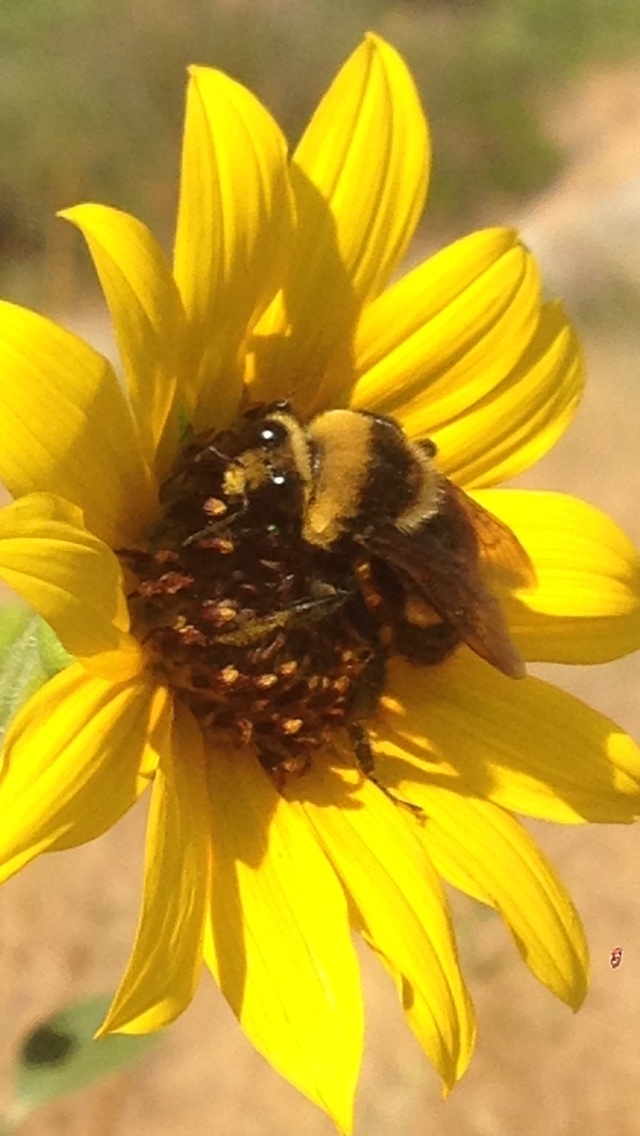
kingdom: Animalia
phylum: Arthropoda
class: Insecta
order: Hymenoptera
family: Apidae
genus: Bombus
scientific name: Bombus crotchii
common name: Crotch bumble bee
